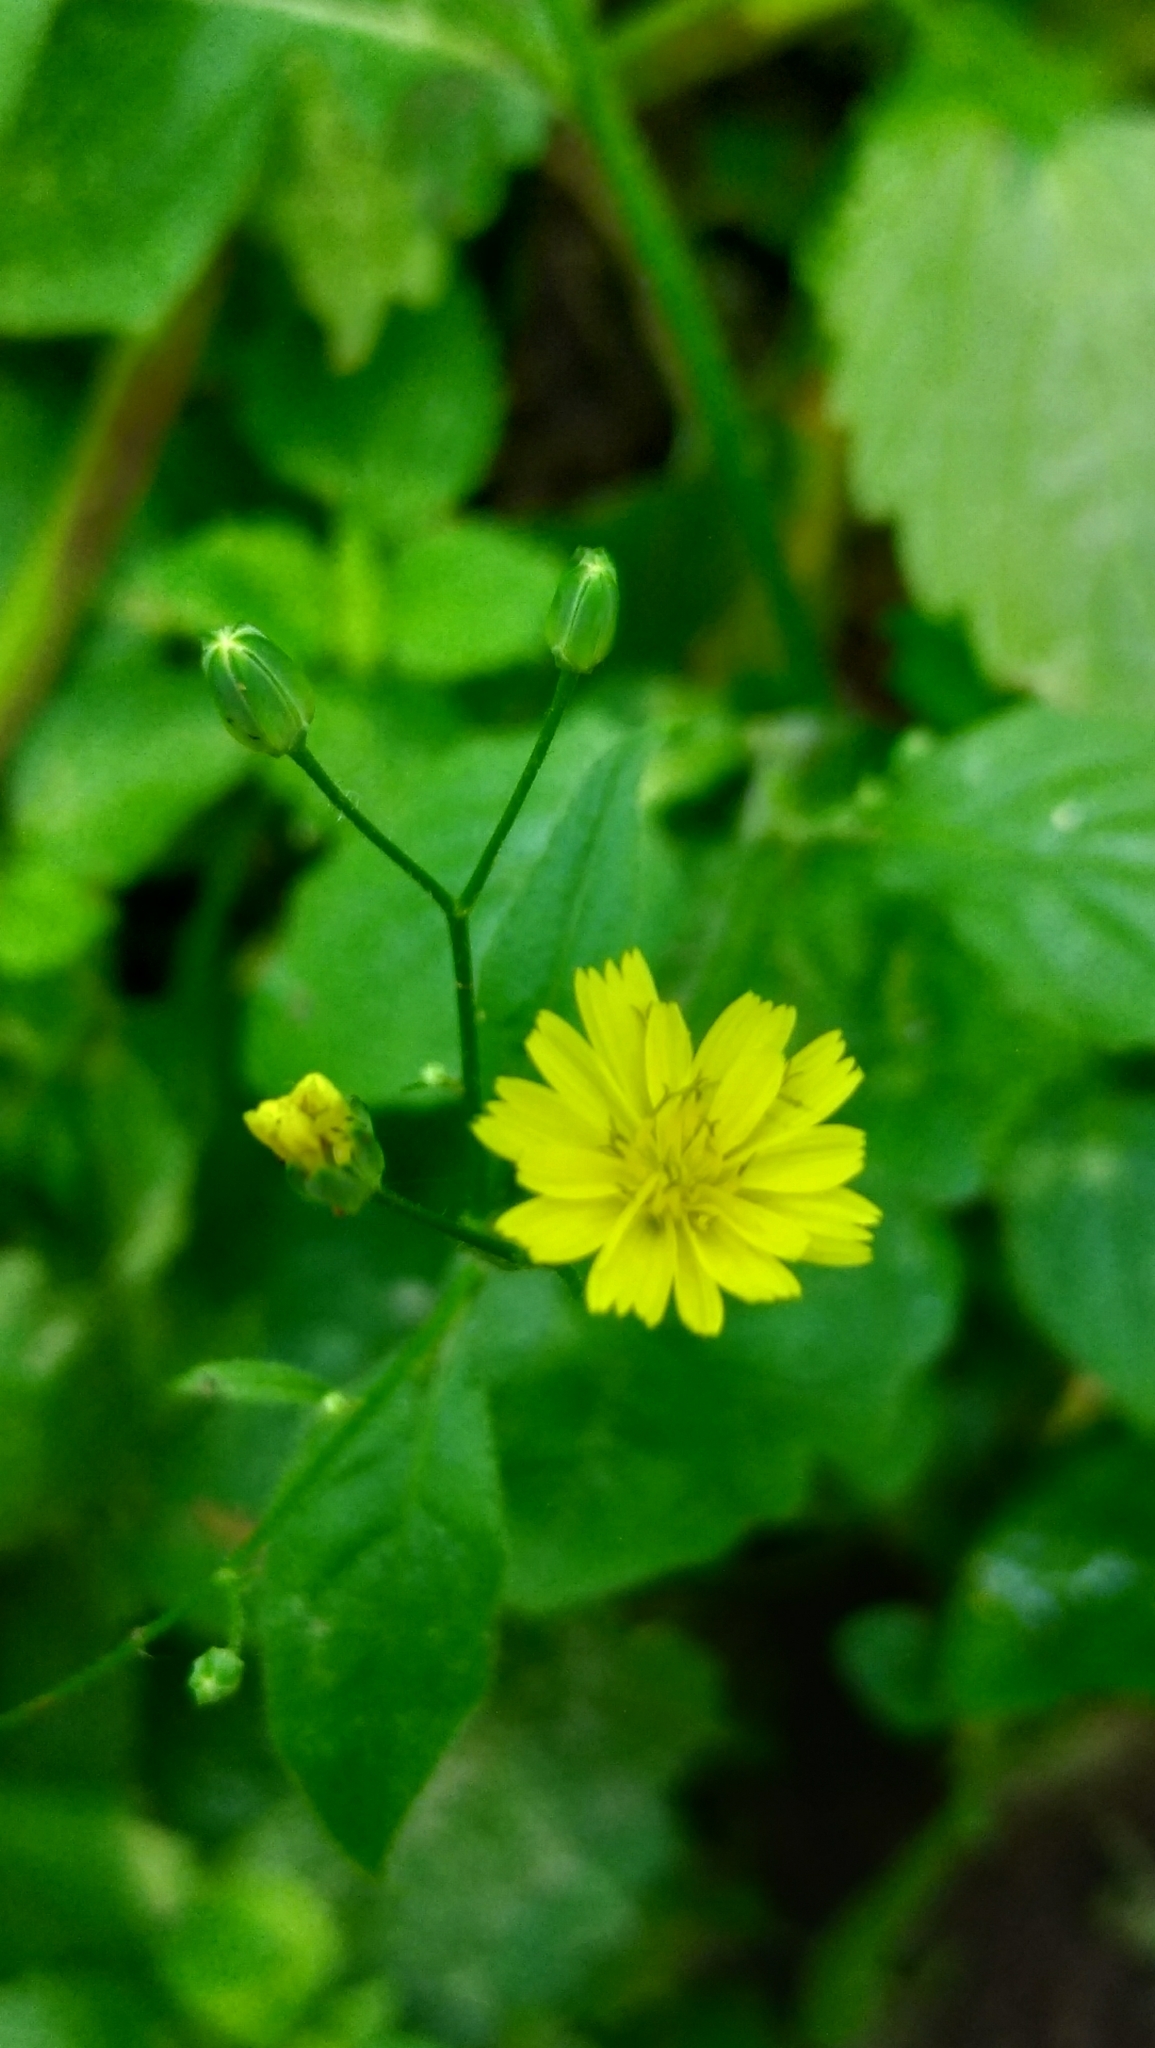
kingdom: Plantae
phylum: Tracheophyta
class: Magnoliopsida
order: Asterales
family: Asteraceae
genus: Lapsana
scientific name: Lapsana communis
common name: Nipplewort
